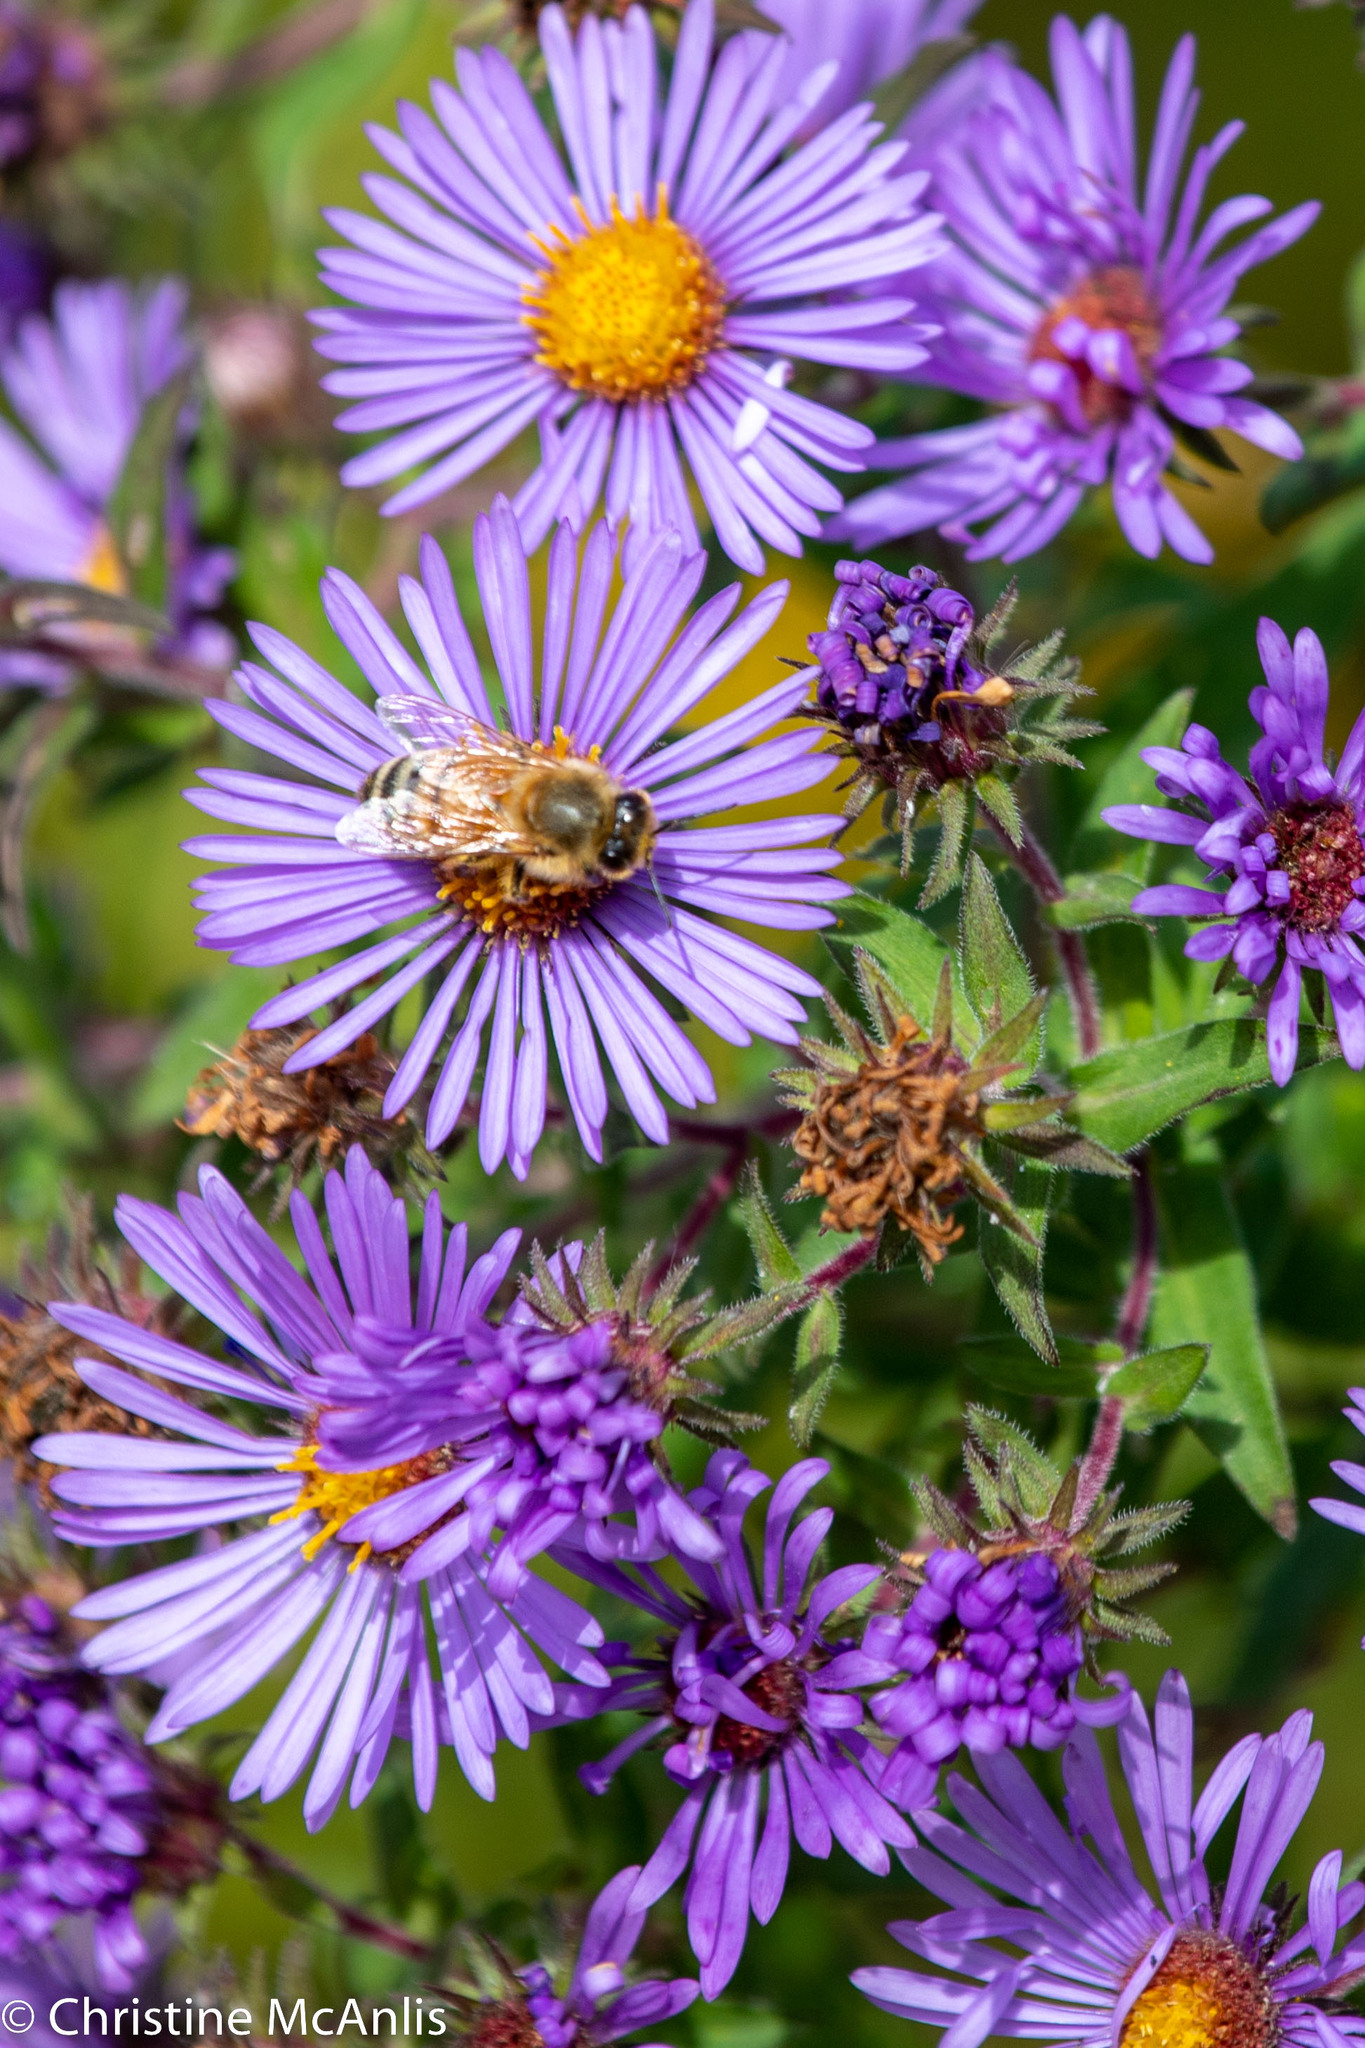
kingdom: Animalia
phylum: Arthropoda
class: Insecta
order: Hymenoptera
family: Apidae
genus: Apis
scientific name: Apis mellifera
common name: Honey bee
